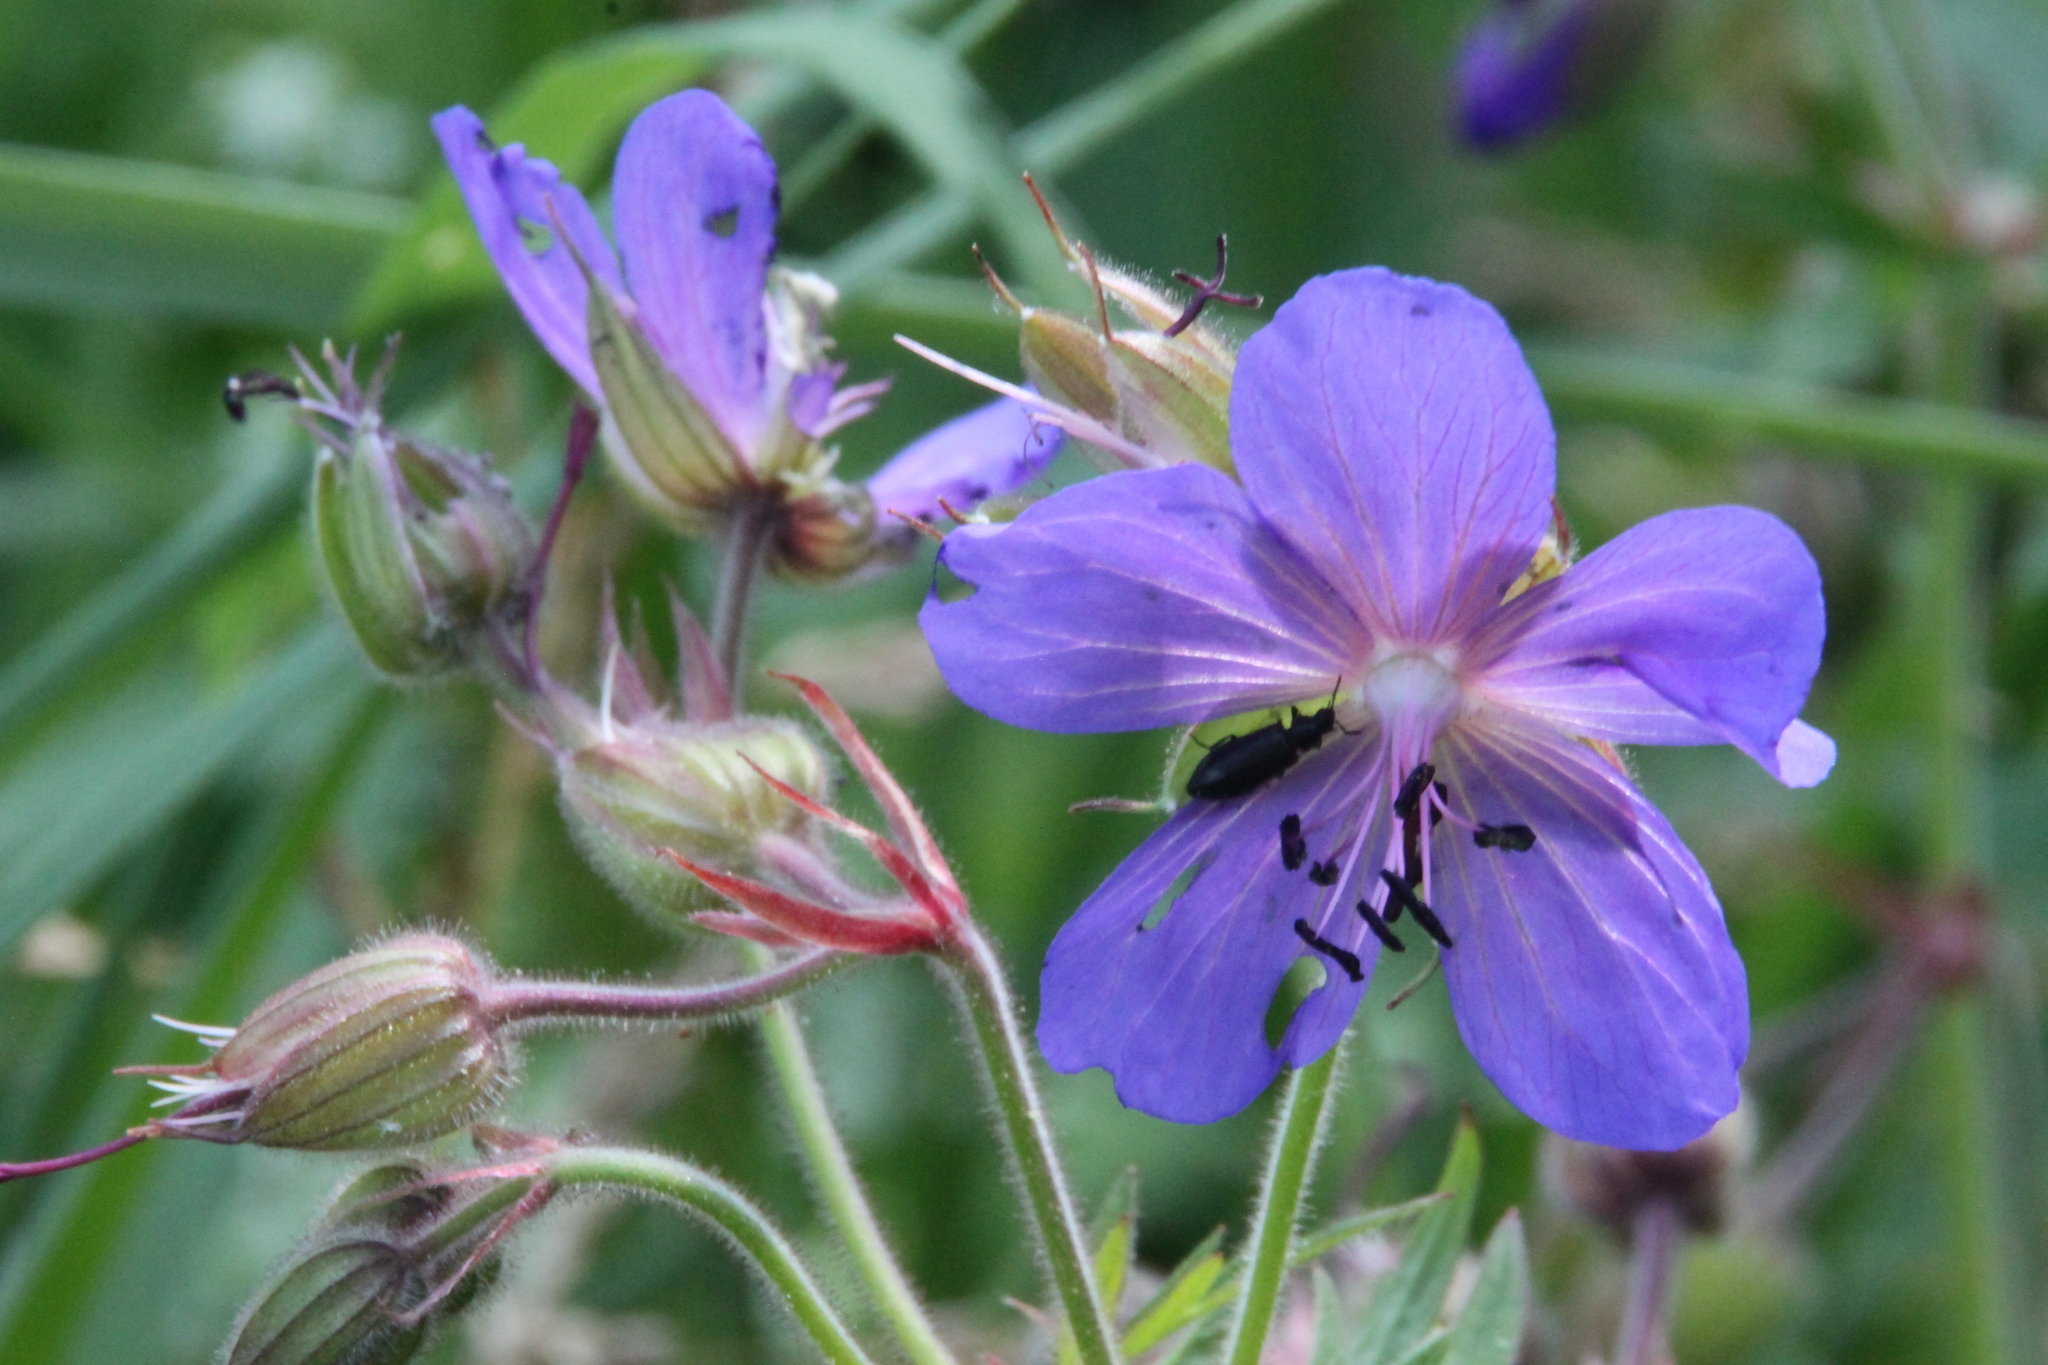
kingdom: Plantae
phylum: Tracheophyta
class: Magnoliopsida
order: Geraniales
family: Geraniaceae
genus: Geranium
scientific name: Geranium pratense
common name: Meadow crane's-bill
